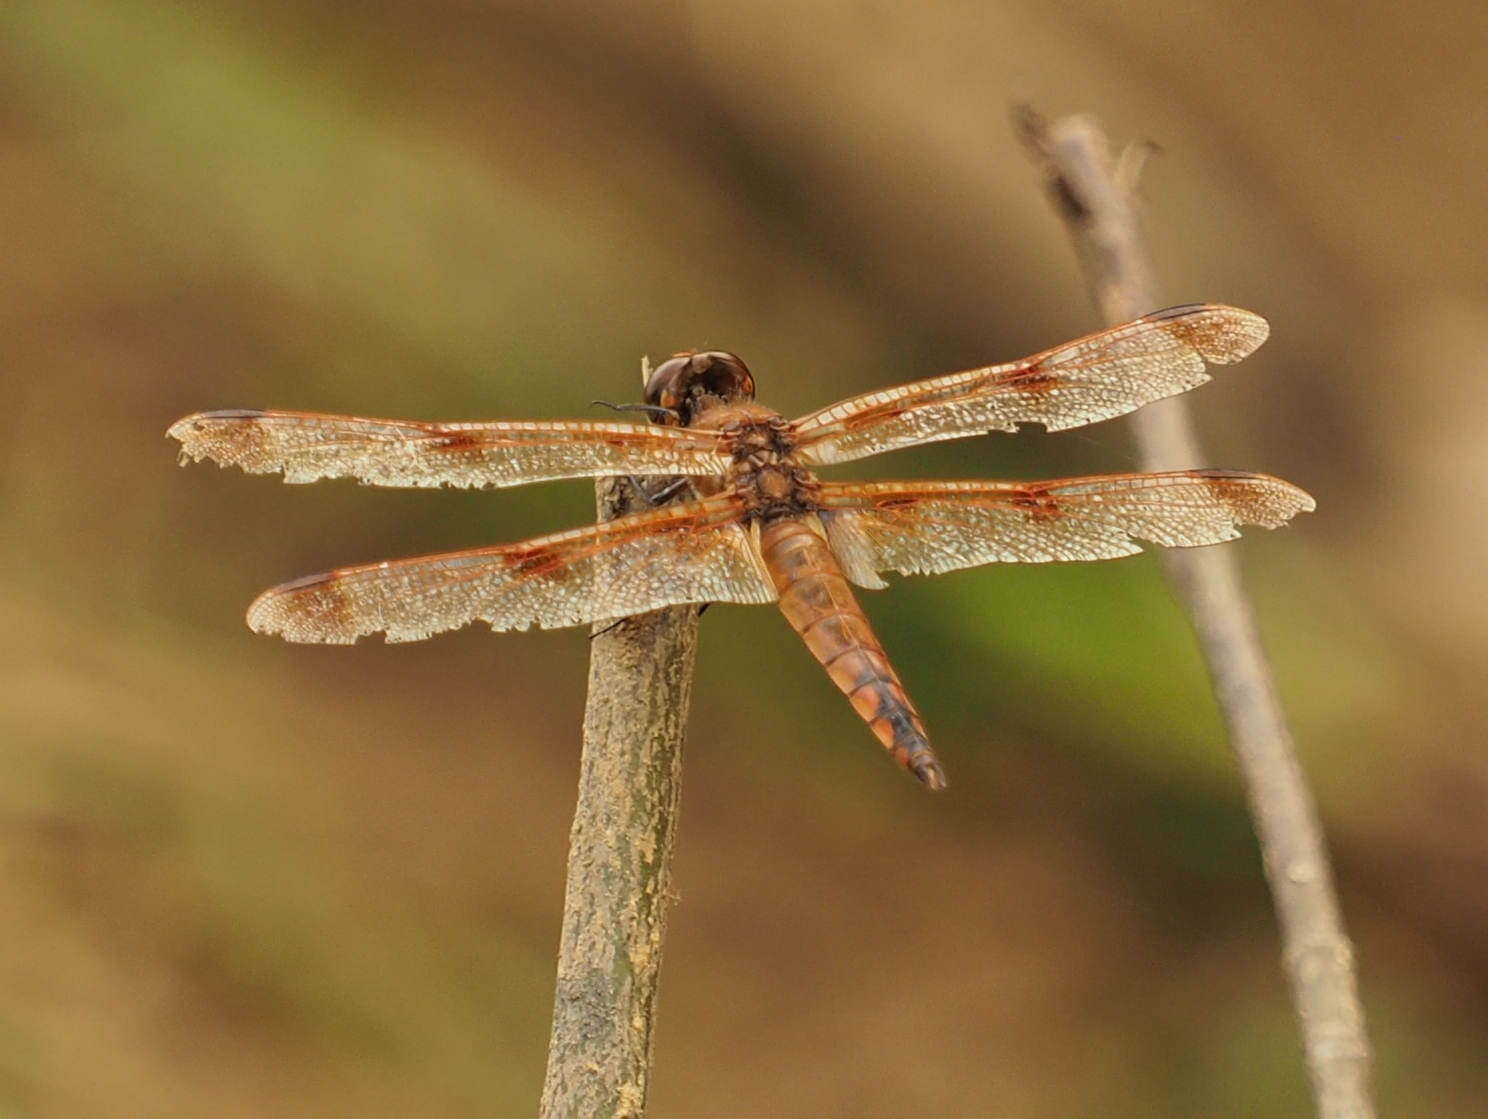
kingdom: Animalia
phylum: Arthropoda
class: Insecta
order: Odonata
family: Libellulidae
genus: Libellula
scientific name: Libellula semifasciata
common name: Painted skimmer
